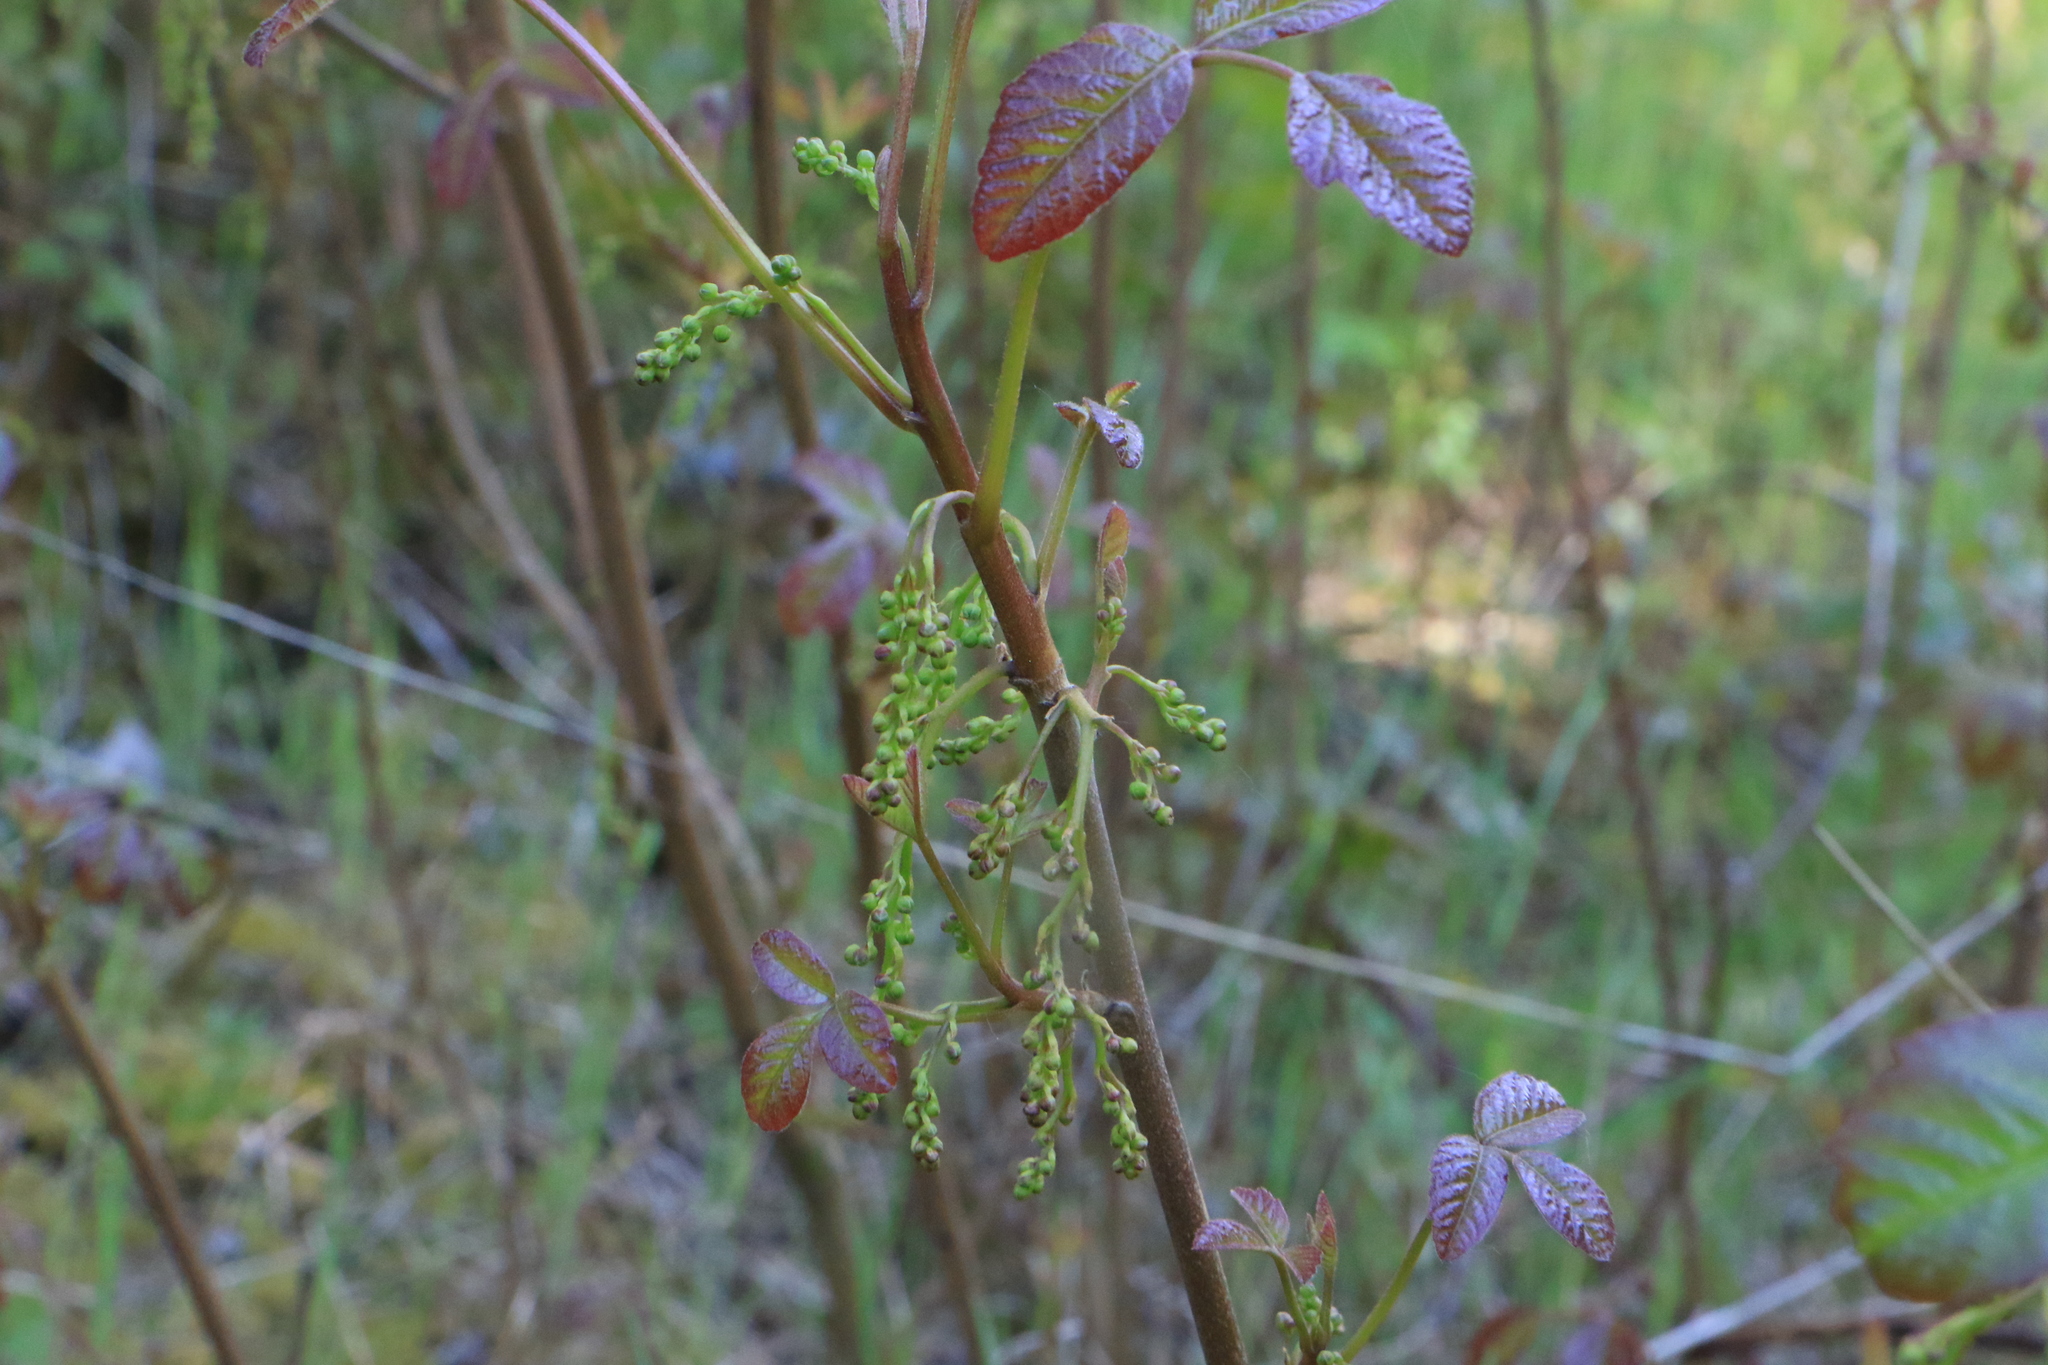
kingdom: Plantae
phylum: Tracheophyta
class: Magnoliopsida
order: Sapindales
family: Anacardiaceae
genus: Toxicodendron
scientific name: Toxicodendron diversilobum
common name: Pacific poison-oak
